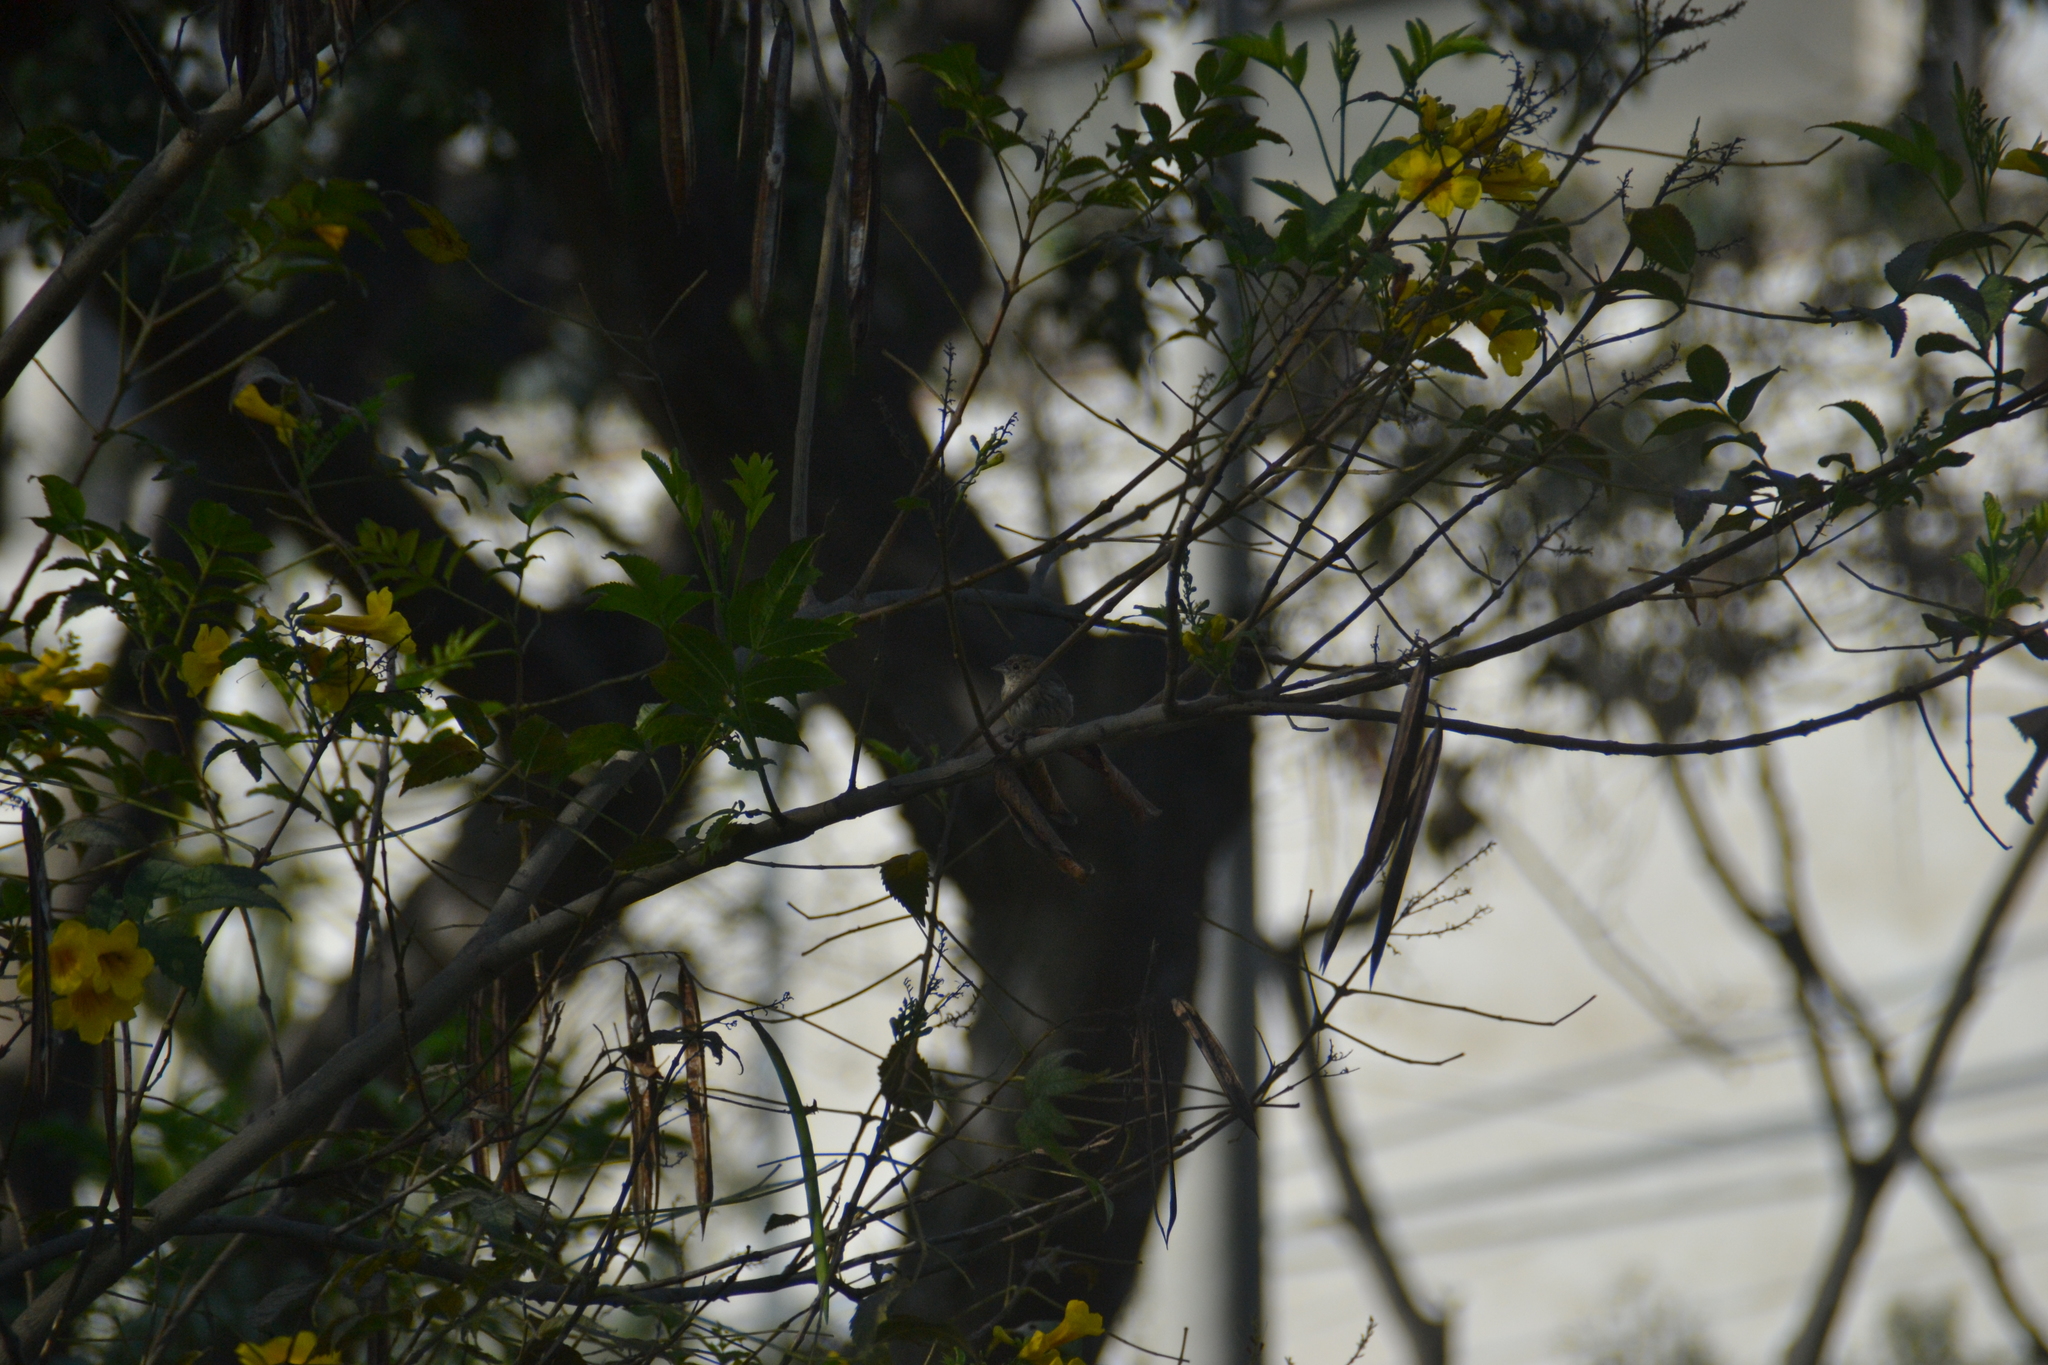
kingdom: Animalia
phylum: Chordata
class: Aves
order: Passeriformes
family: Thraupidae
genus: Volatinia
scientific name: Volatinia jacarina
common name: Blue-black grassquit
